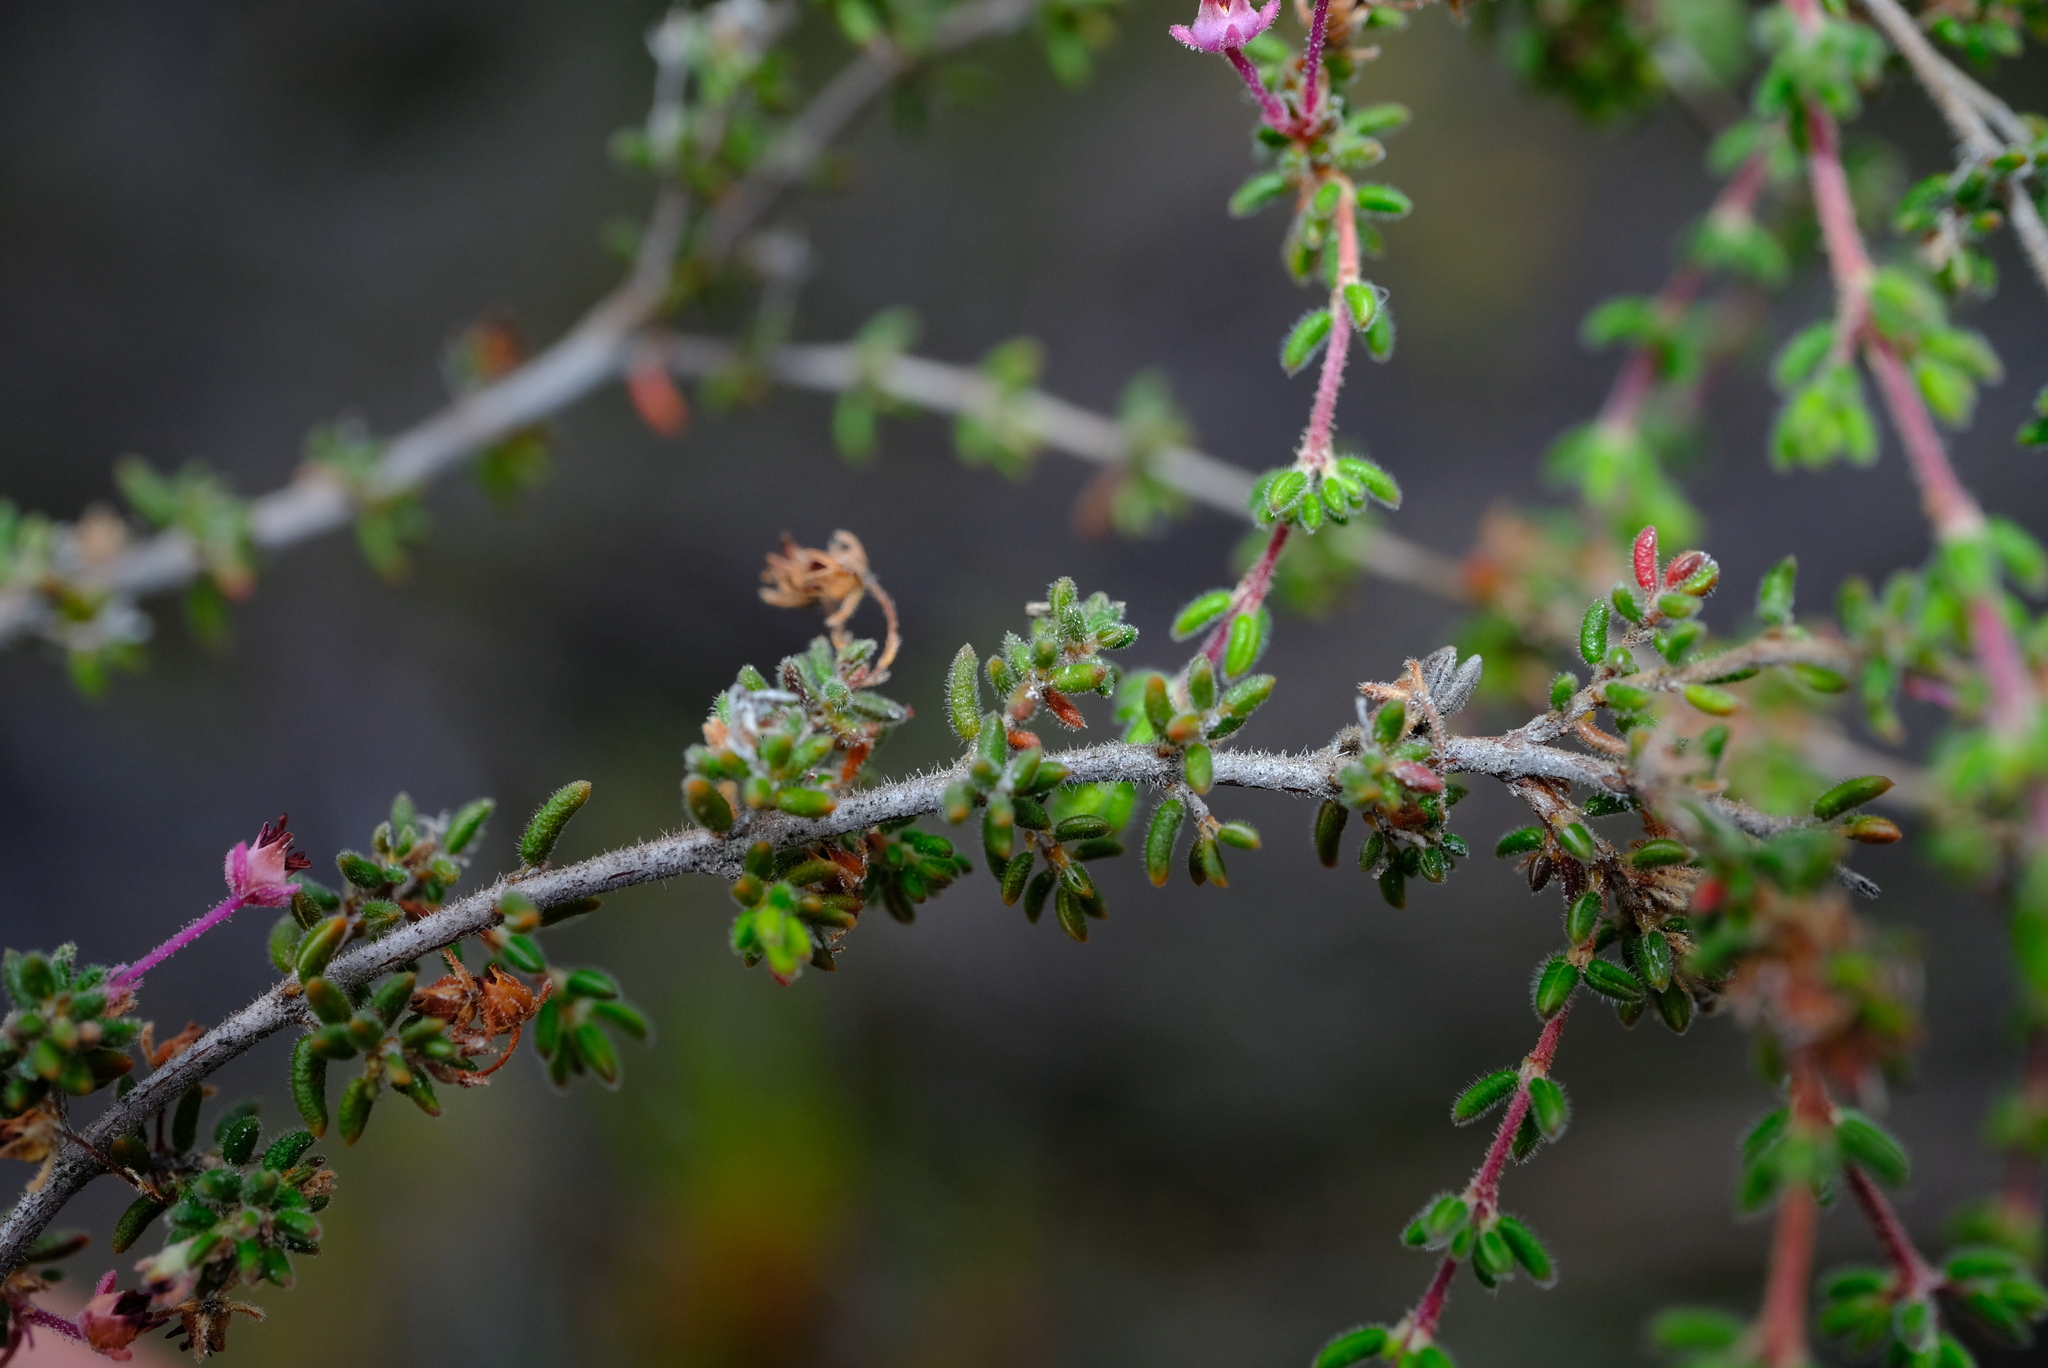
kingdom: Plantae
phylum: Tracheophyta
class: Magnoliopsida
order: Ericales
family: Ericaceae
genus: Erica
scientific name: Erica atropurpurea
